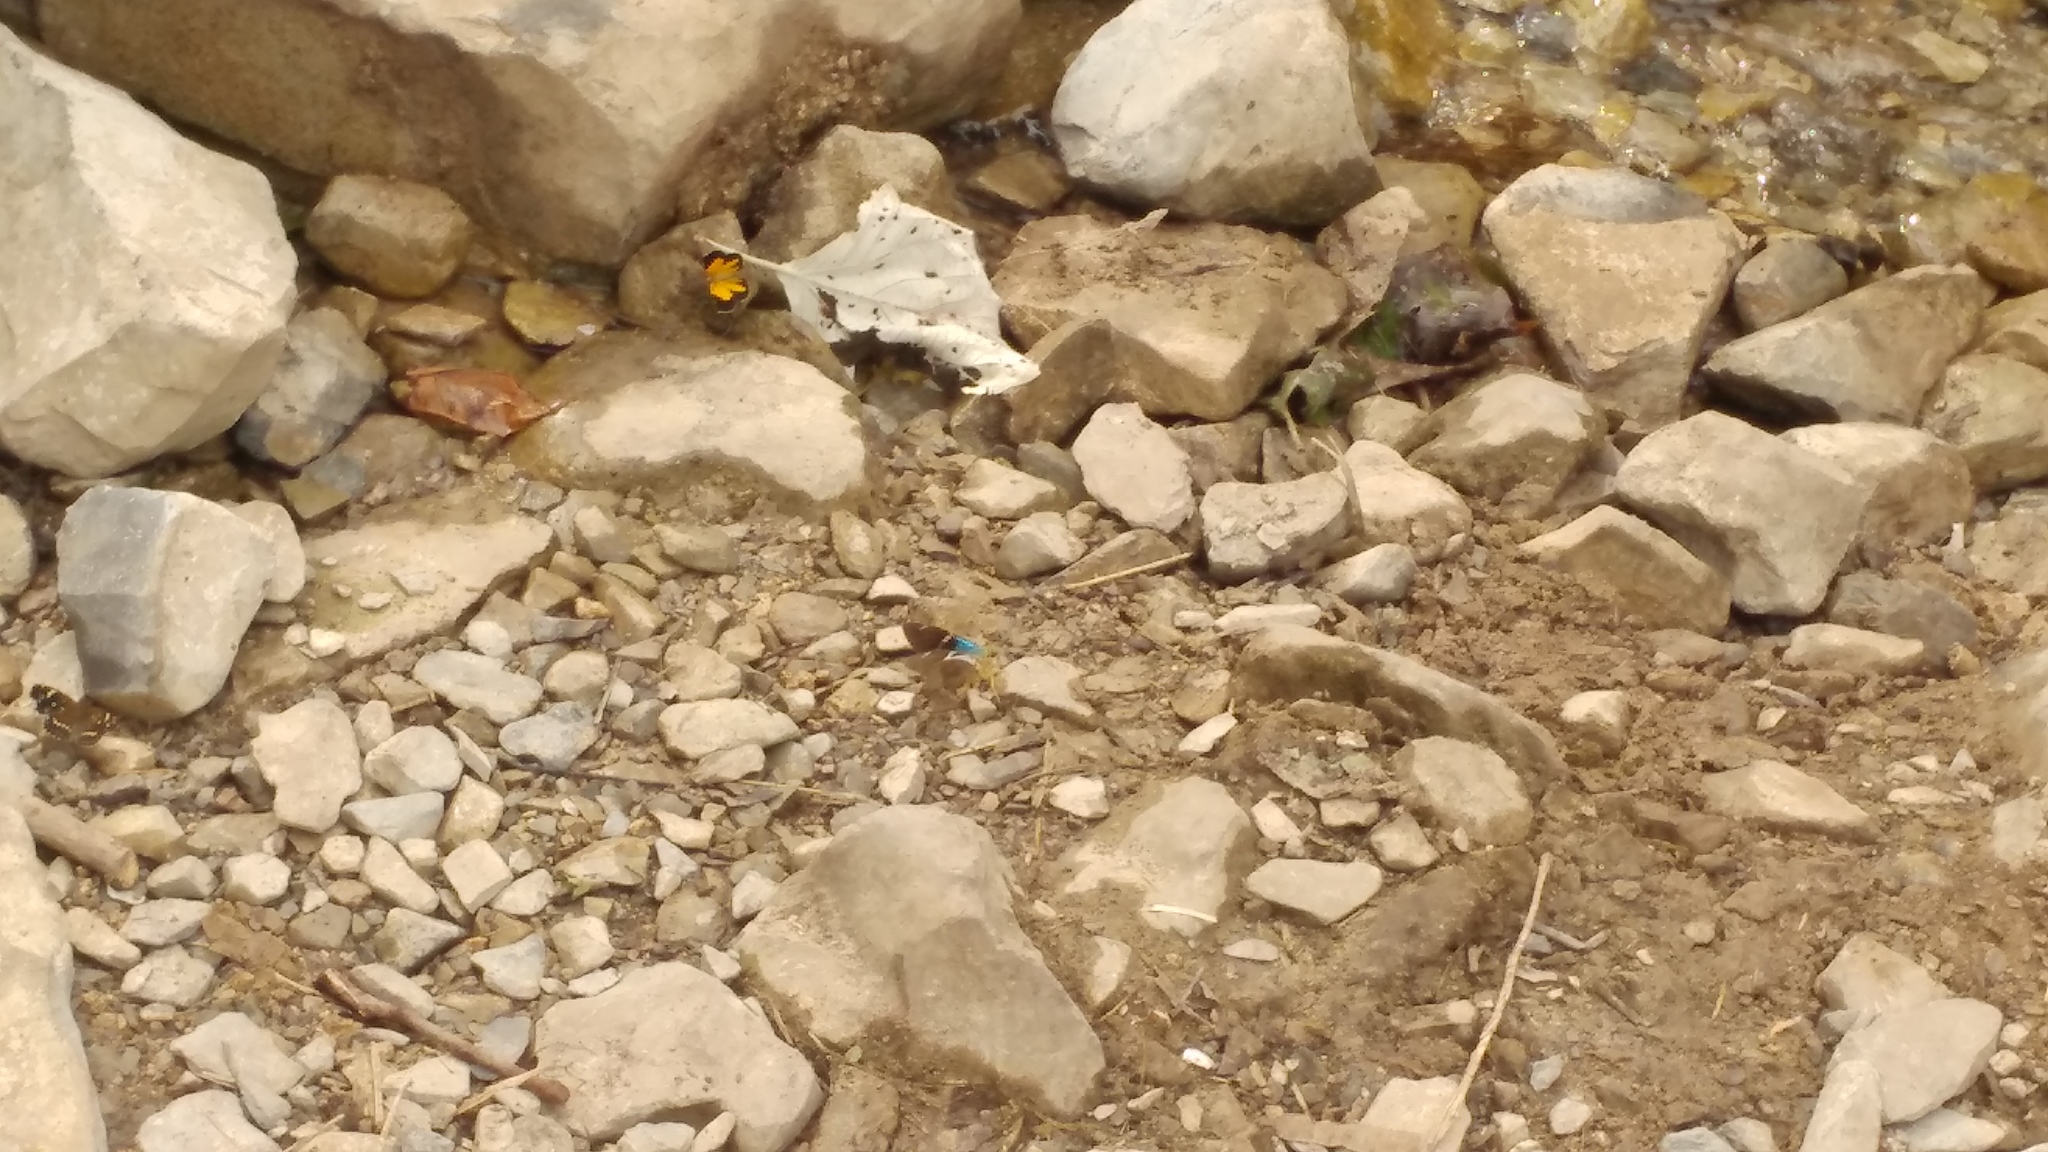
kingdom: Animalia
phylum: Arthropoda
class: Insecta
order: Lepidoptera
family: Hesperiidae
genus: Astraptes
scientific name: Astraptes fulgerator
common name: Two-barred flasher
